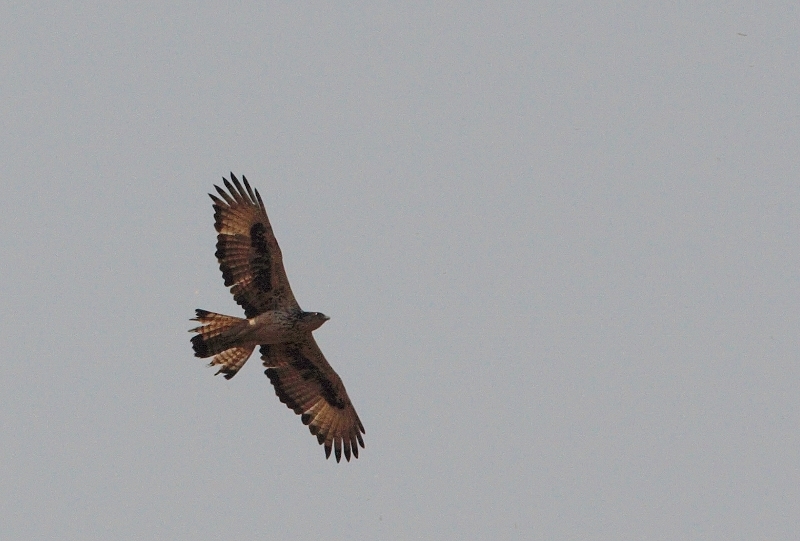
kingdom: Animalia
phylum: Chordata
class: Aves
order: Accipitriformes
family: Accipitridae
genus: Aquila
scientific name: Aquila spilogaster
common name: African hawk-eagle
